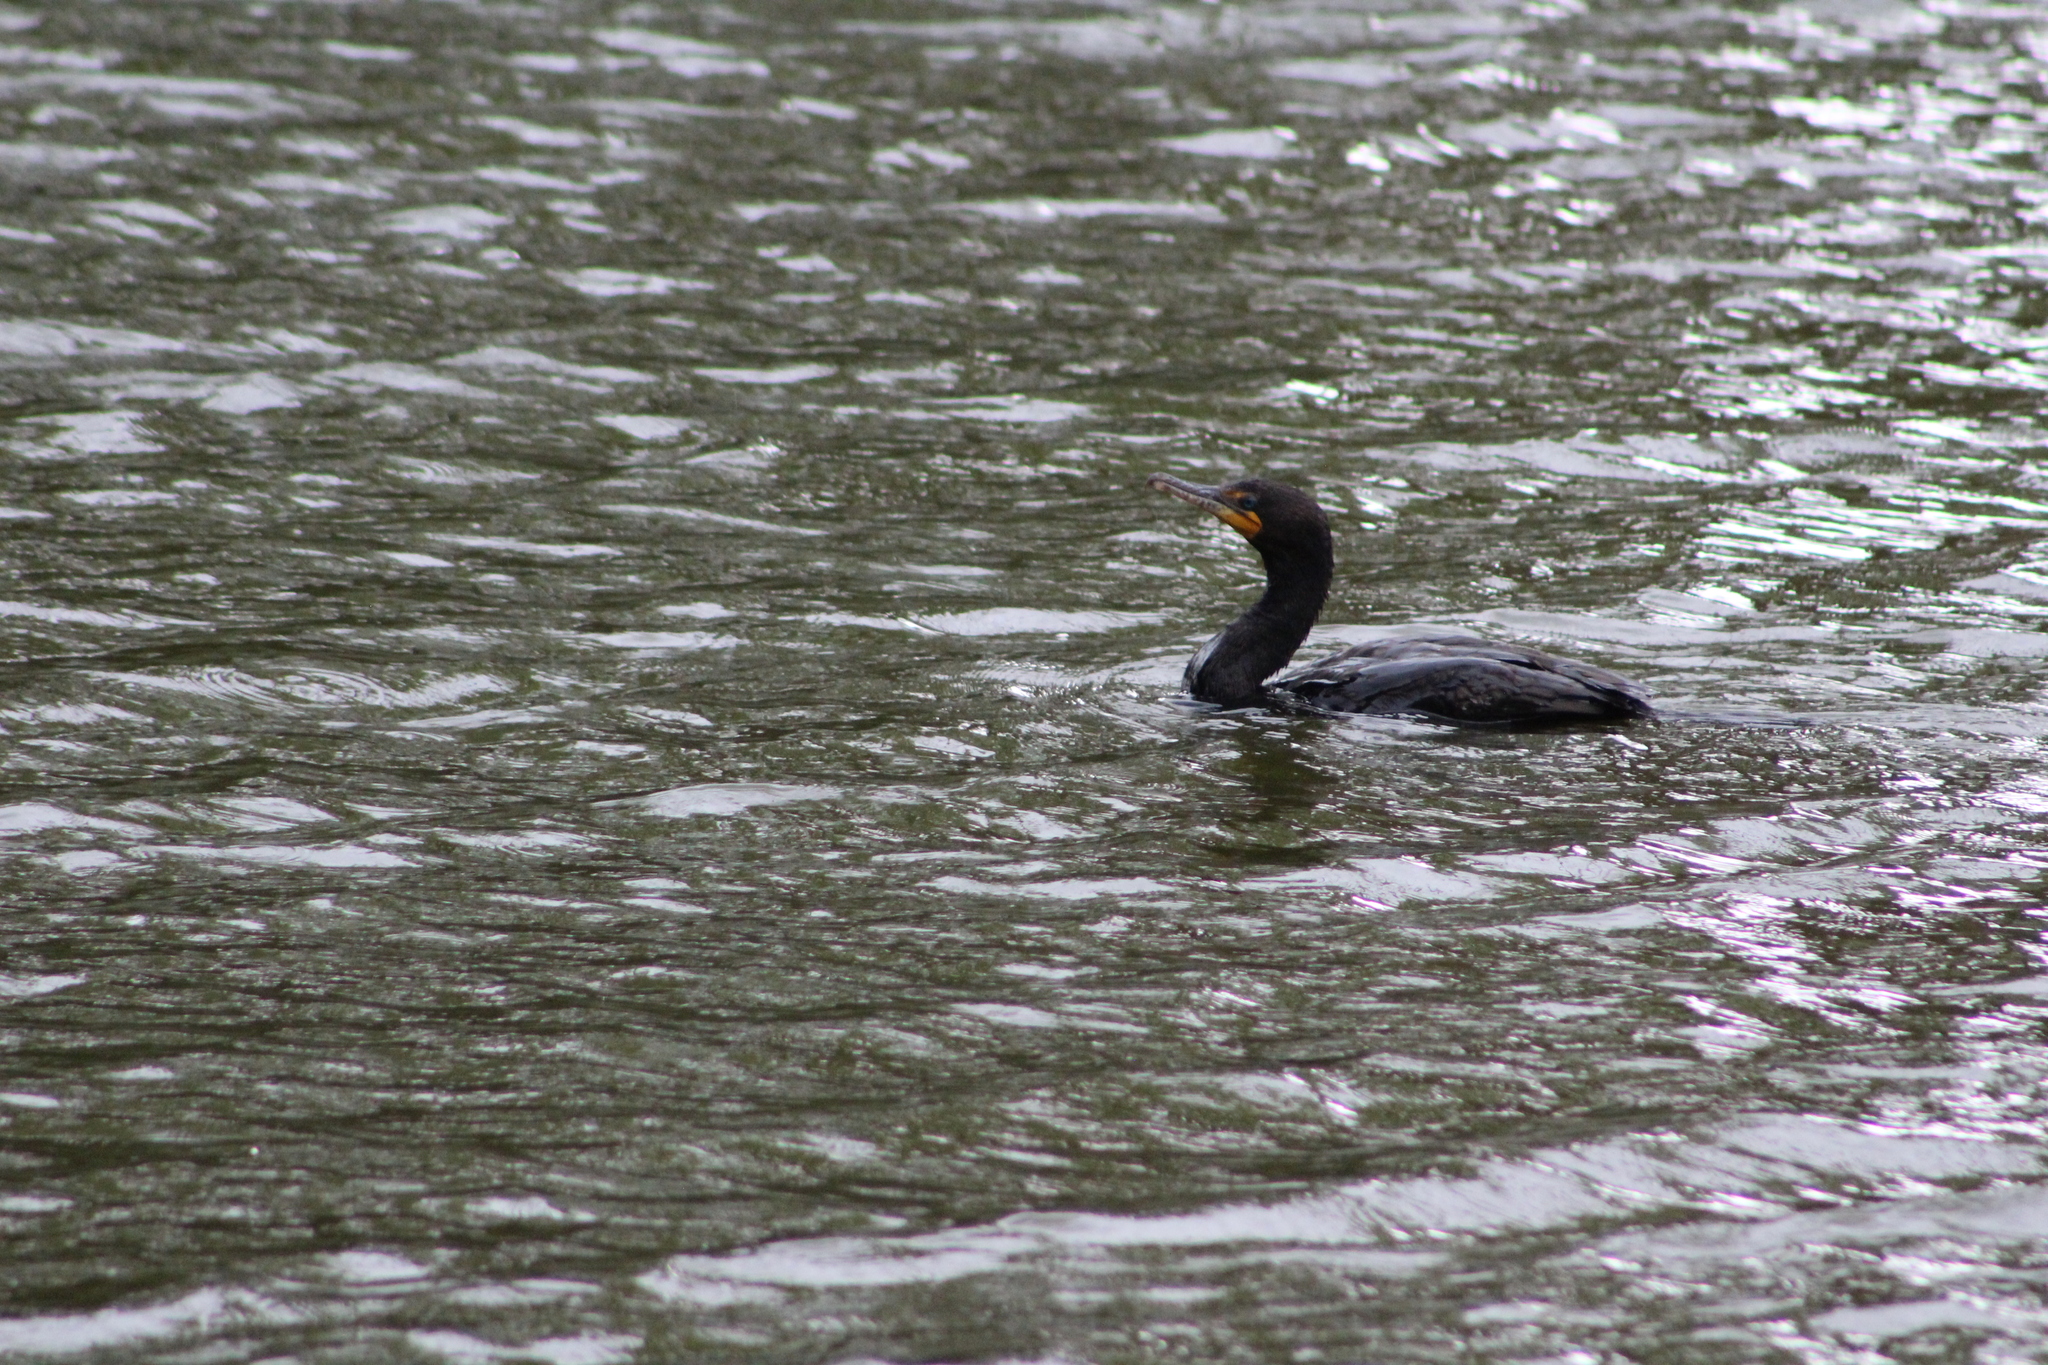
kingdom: Animalia
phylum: Chordata
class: Aves
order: Suliformes
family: Phalacrocoracidae
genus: Phalacrocorax
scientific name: Phalacrocorax auritus
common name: Double-crested cormorant
